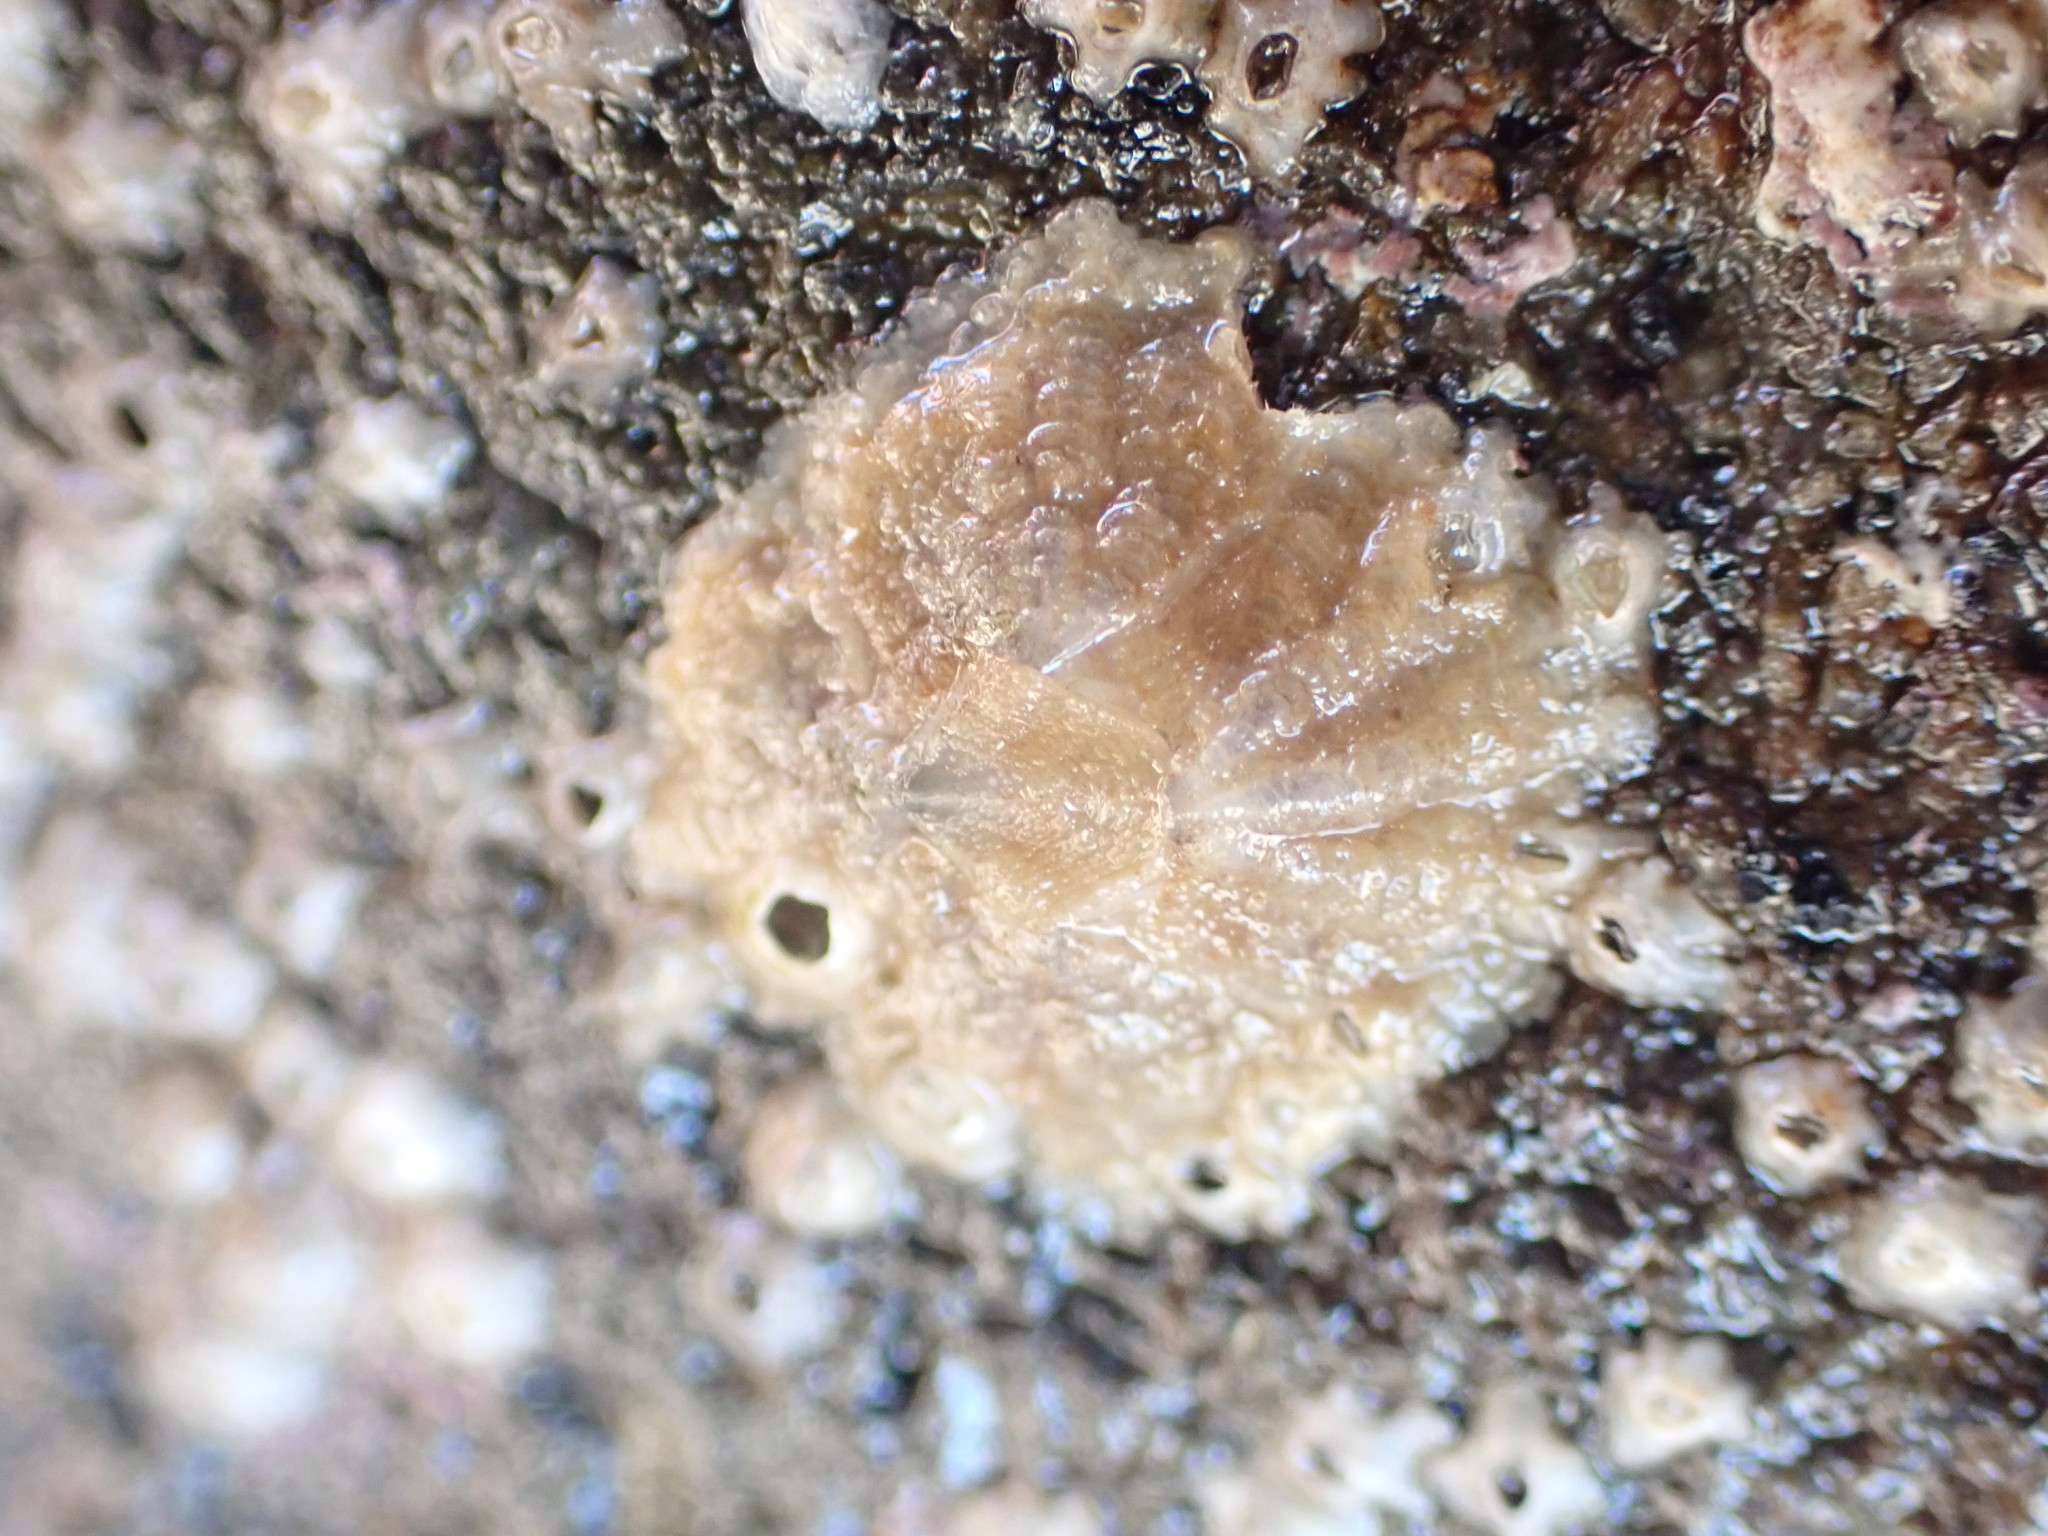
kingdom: Animalia
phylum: Arthropoda
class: Maxillopoda
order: Sessilia
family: Tetraclitidae
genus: Tetraclitella
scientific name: Tetraclitella depressa
